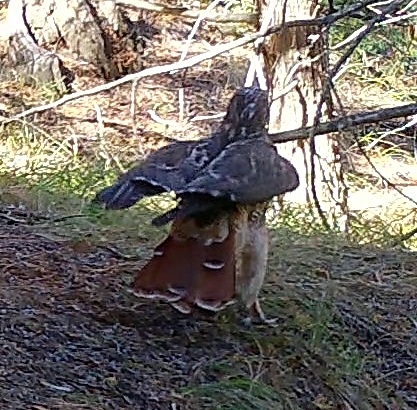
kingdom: Animalia
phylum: Chordata
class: Aves
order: Accipitriformes
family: Accipitridae
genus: Buteo
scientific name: Buteo jamaicensis
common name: Red-tailed hawk
